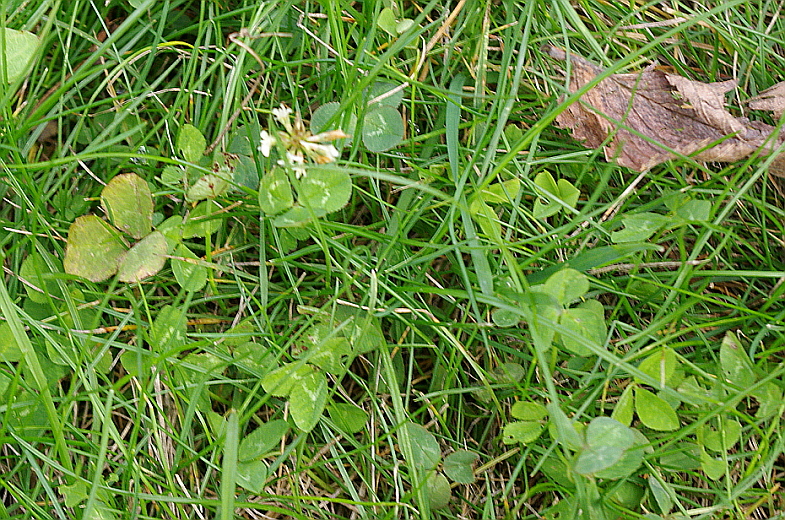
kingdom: Plantae
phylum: Tracheophyta
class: Magnoliopsida
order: Fabales
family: Fabaceae
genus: Trifolium
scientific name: Trifolium repens
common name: White clover
